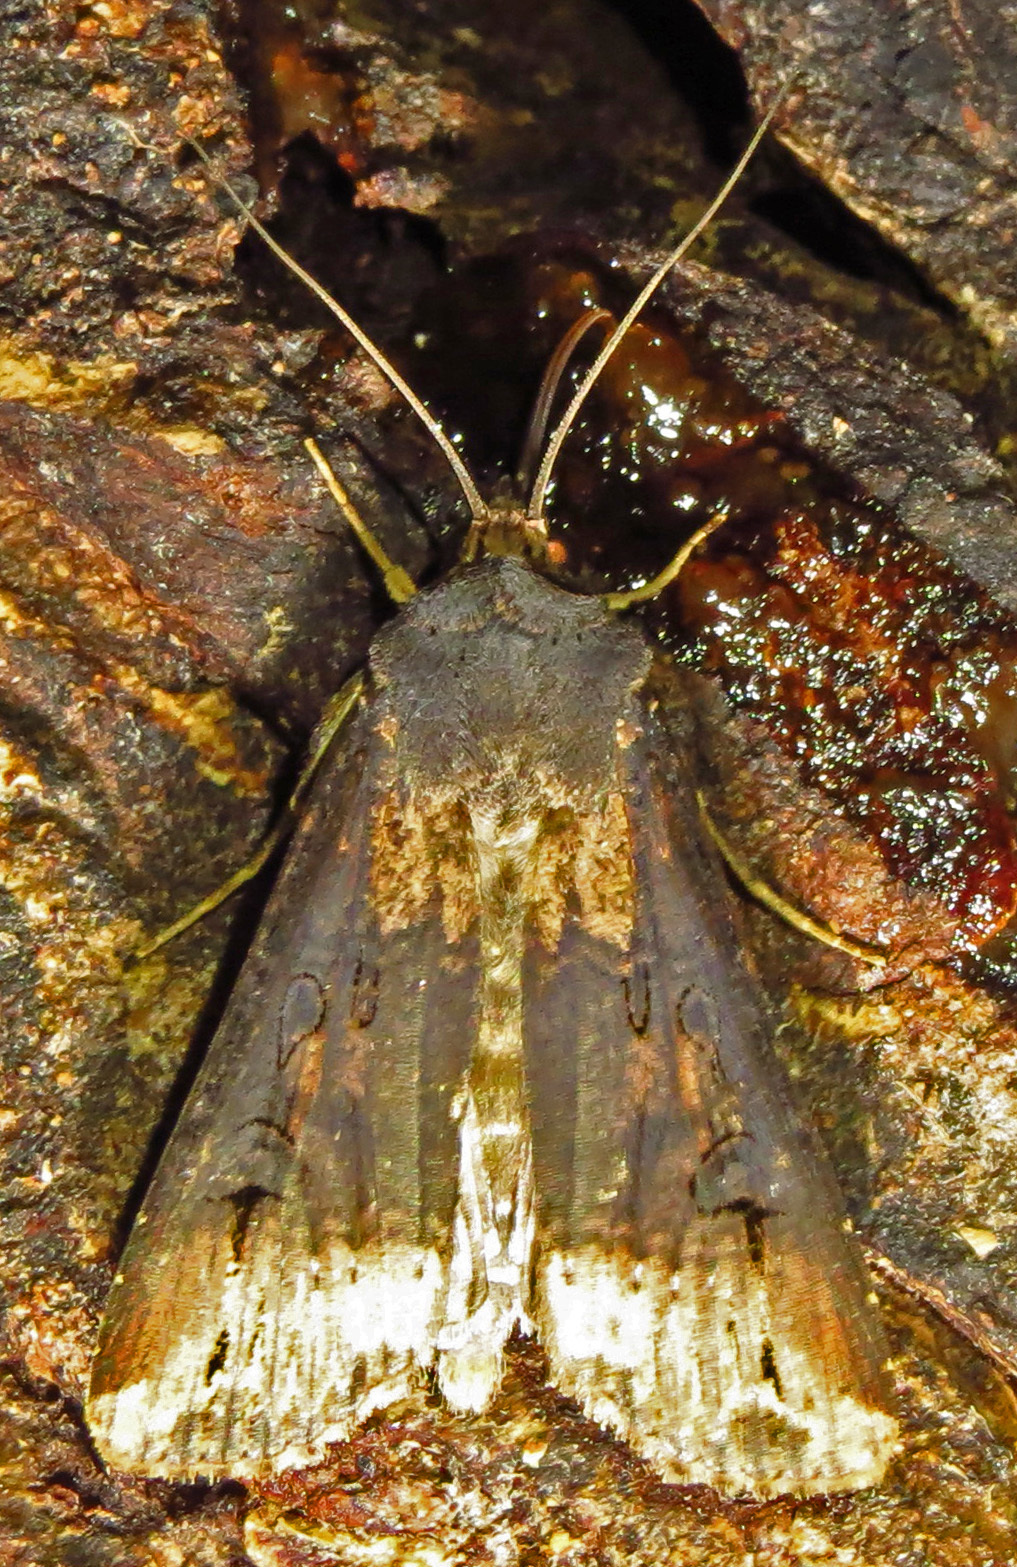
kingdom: Animalia
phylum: Arthropoda
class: Insecta
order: Lepidoptera
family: Noctuidae
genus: Agrotis
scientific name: Agrotis ipsilon
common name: Dark sword-grass
